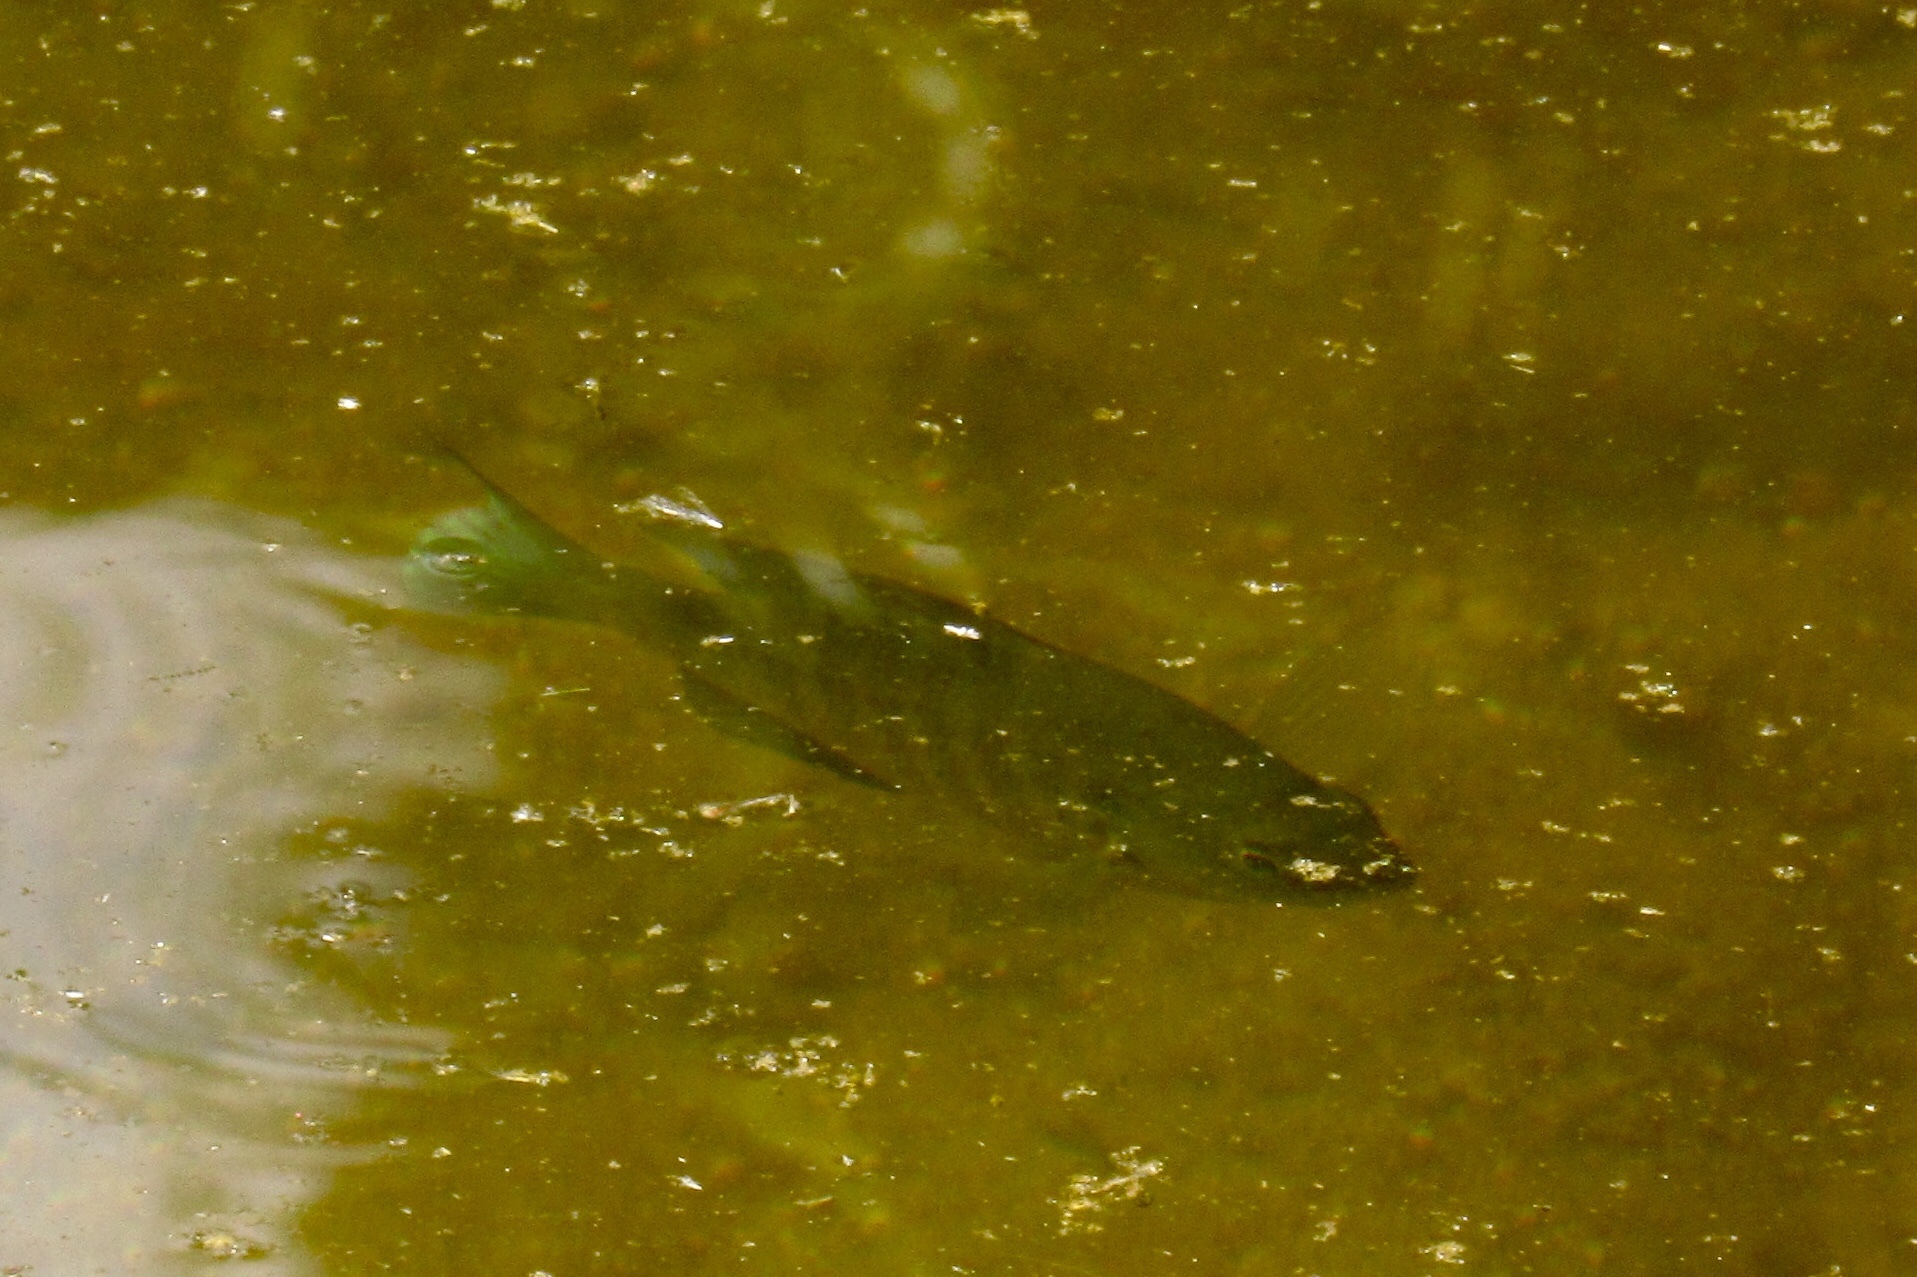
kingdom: Animalia
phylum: Chordata
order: Perciformes
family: Centrarchidae
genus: Lepomis
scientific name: Lepomis cyanellus
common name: Green sunfish
